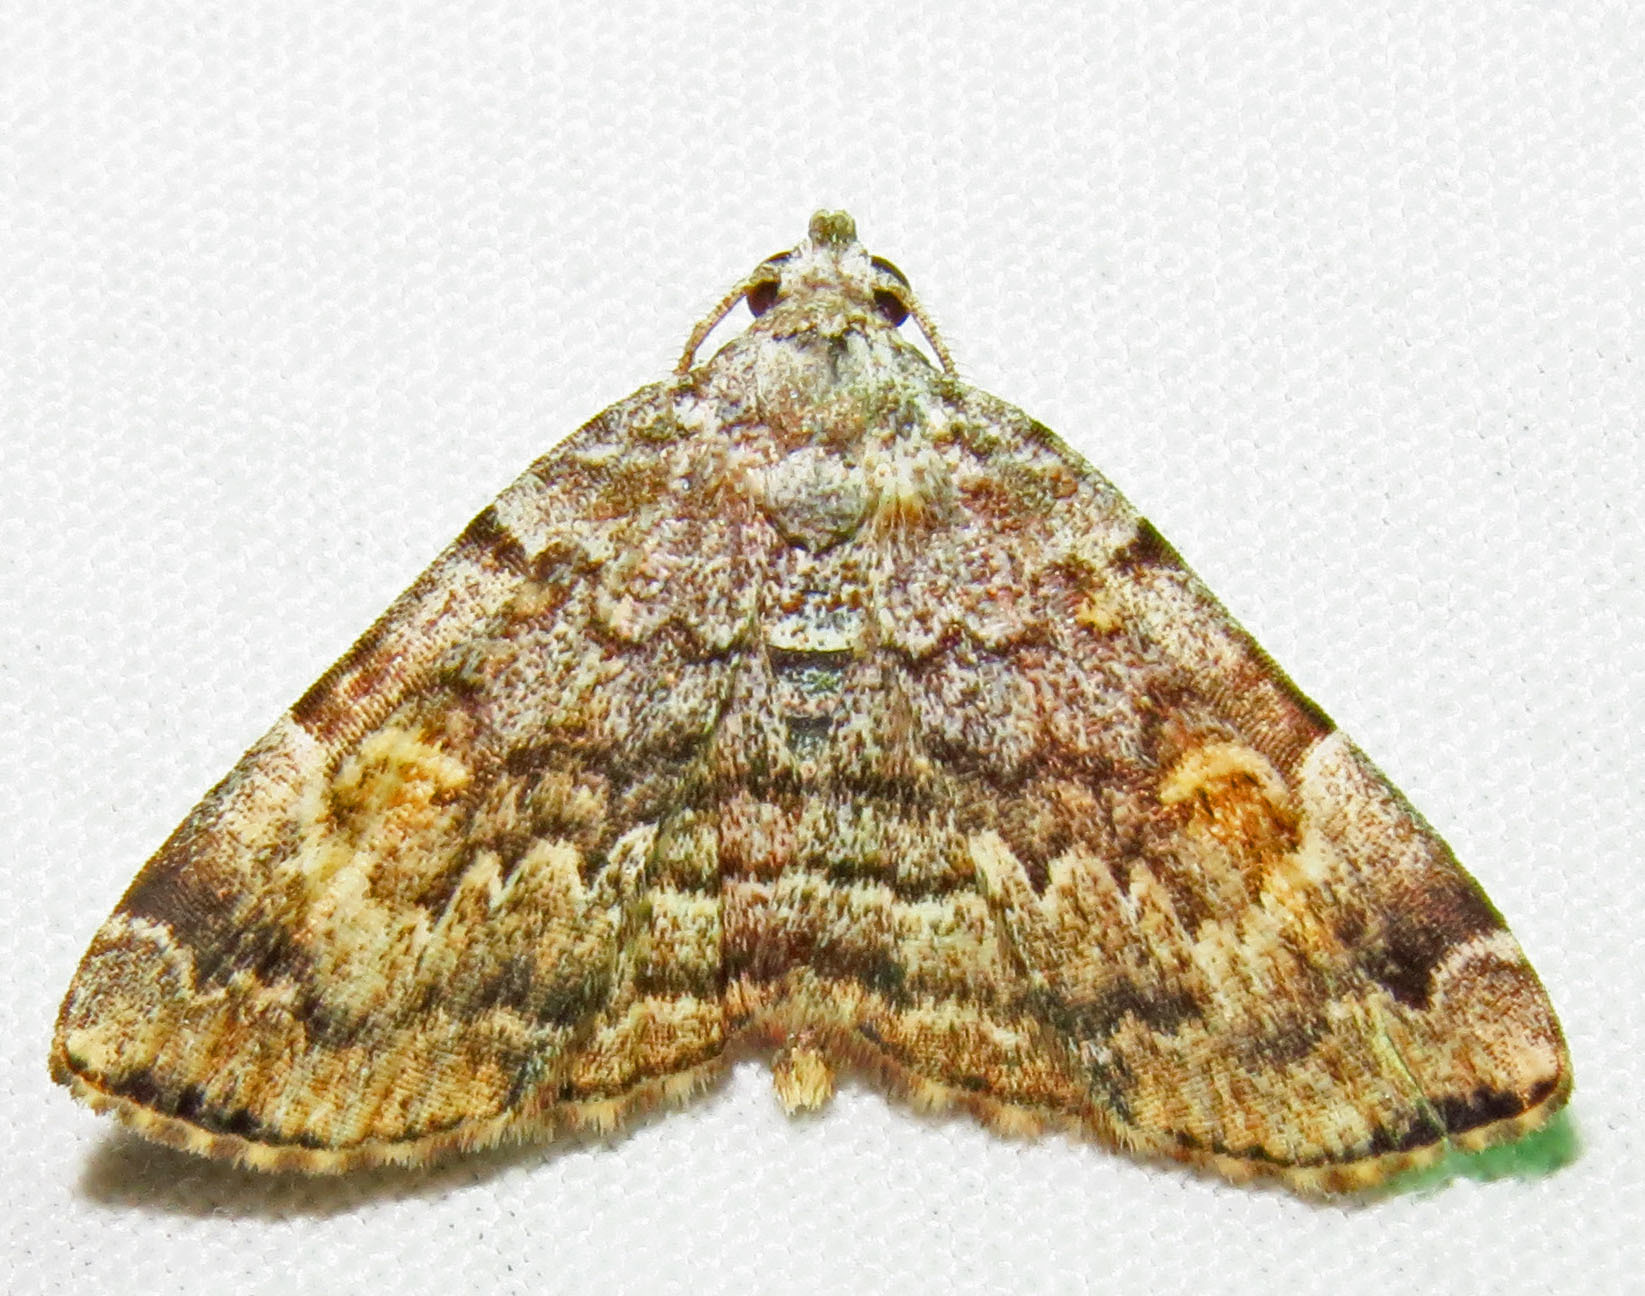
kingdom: Animalia
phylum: Arthropoda
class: Insecta
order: Lepidoptera
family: Erebidae
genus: Idia
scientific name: Idia americalis
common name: American idia moth
